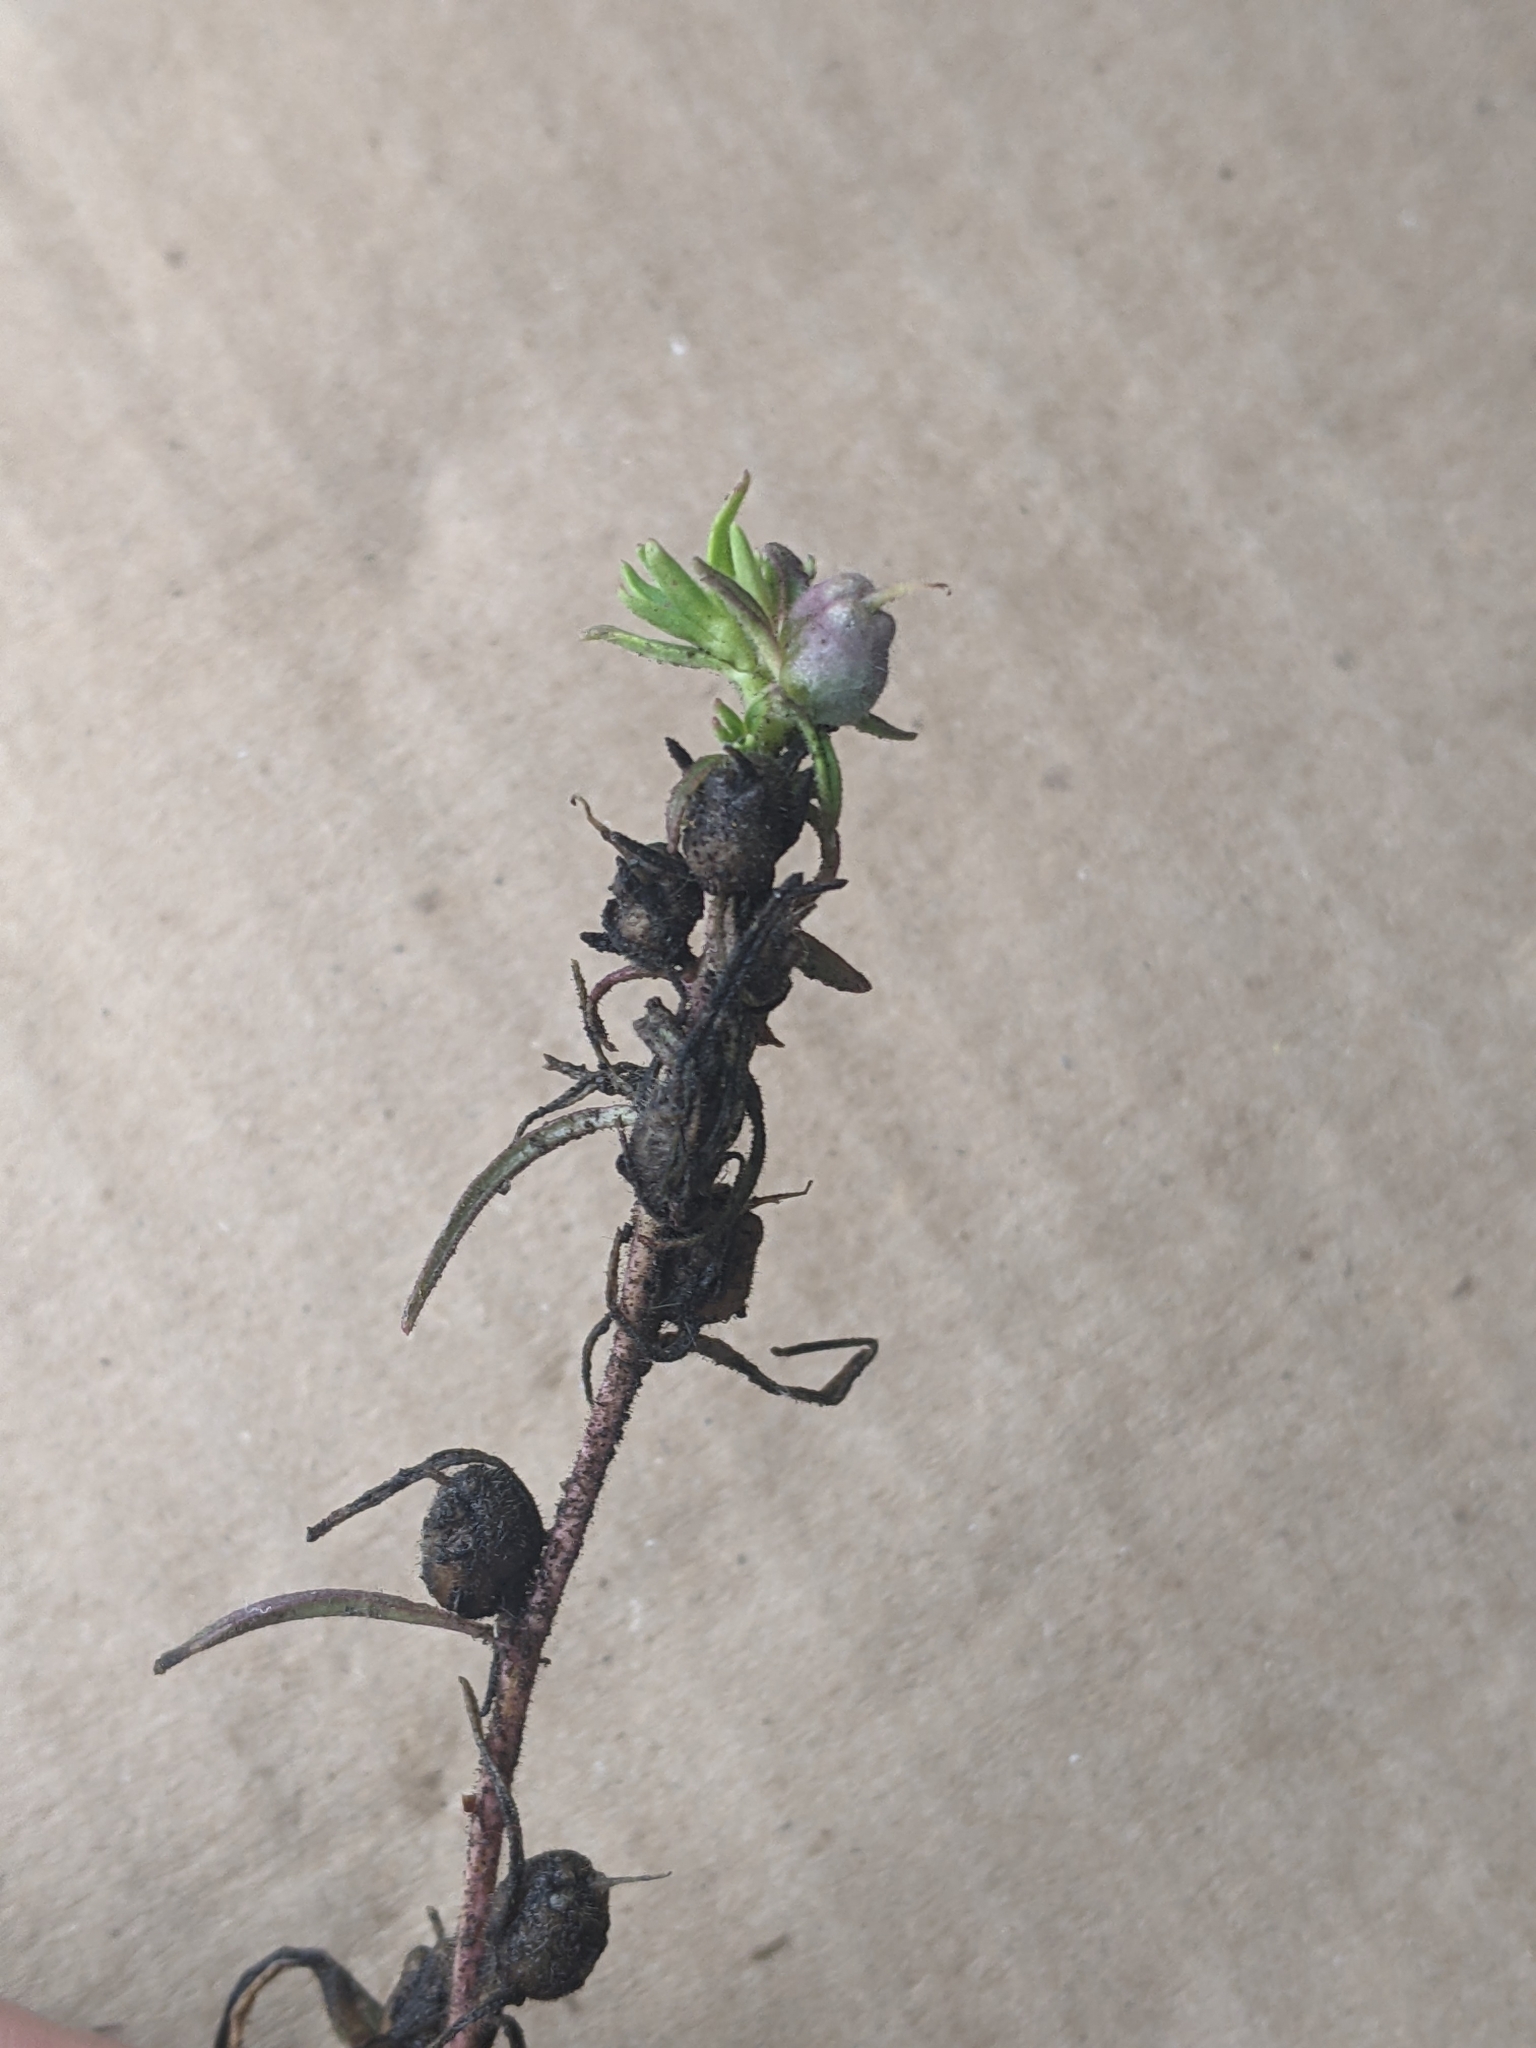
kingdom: Plantae
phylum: Tracheophyta
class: Magnoliopsida
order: Lamiales
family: Plantaginaceae
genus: Misopates
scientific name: Misopates orontium
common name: Weasel's-snout
